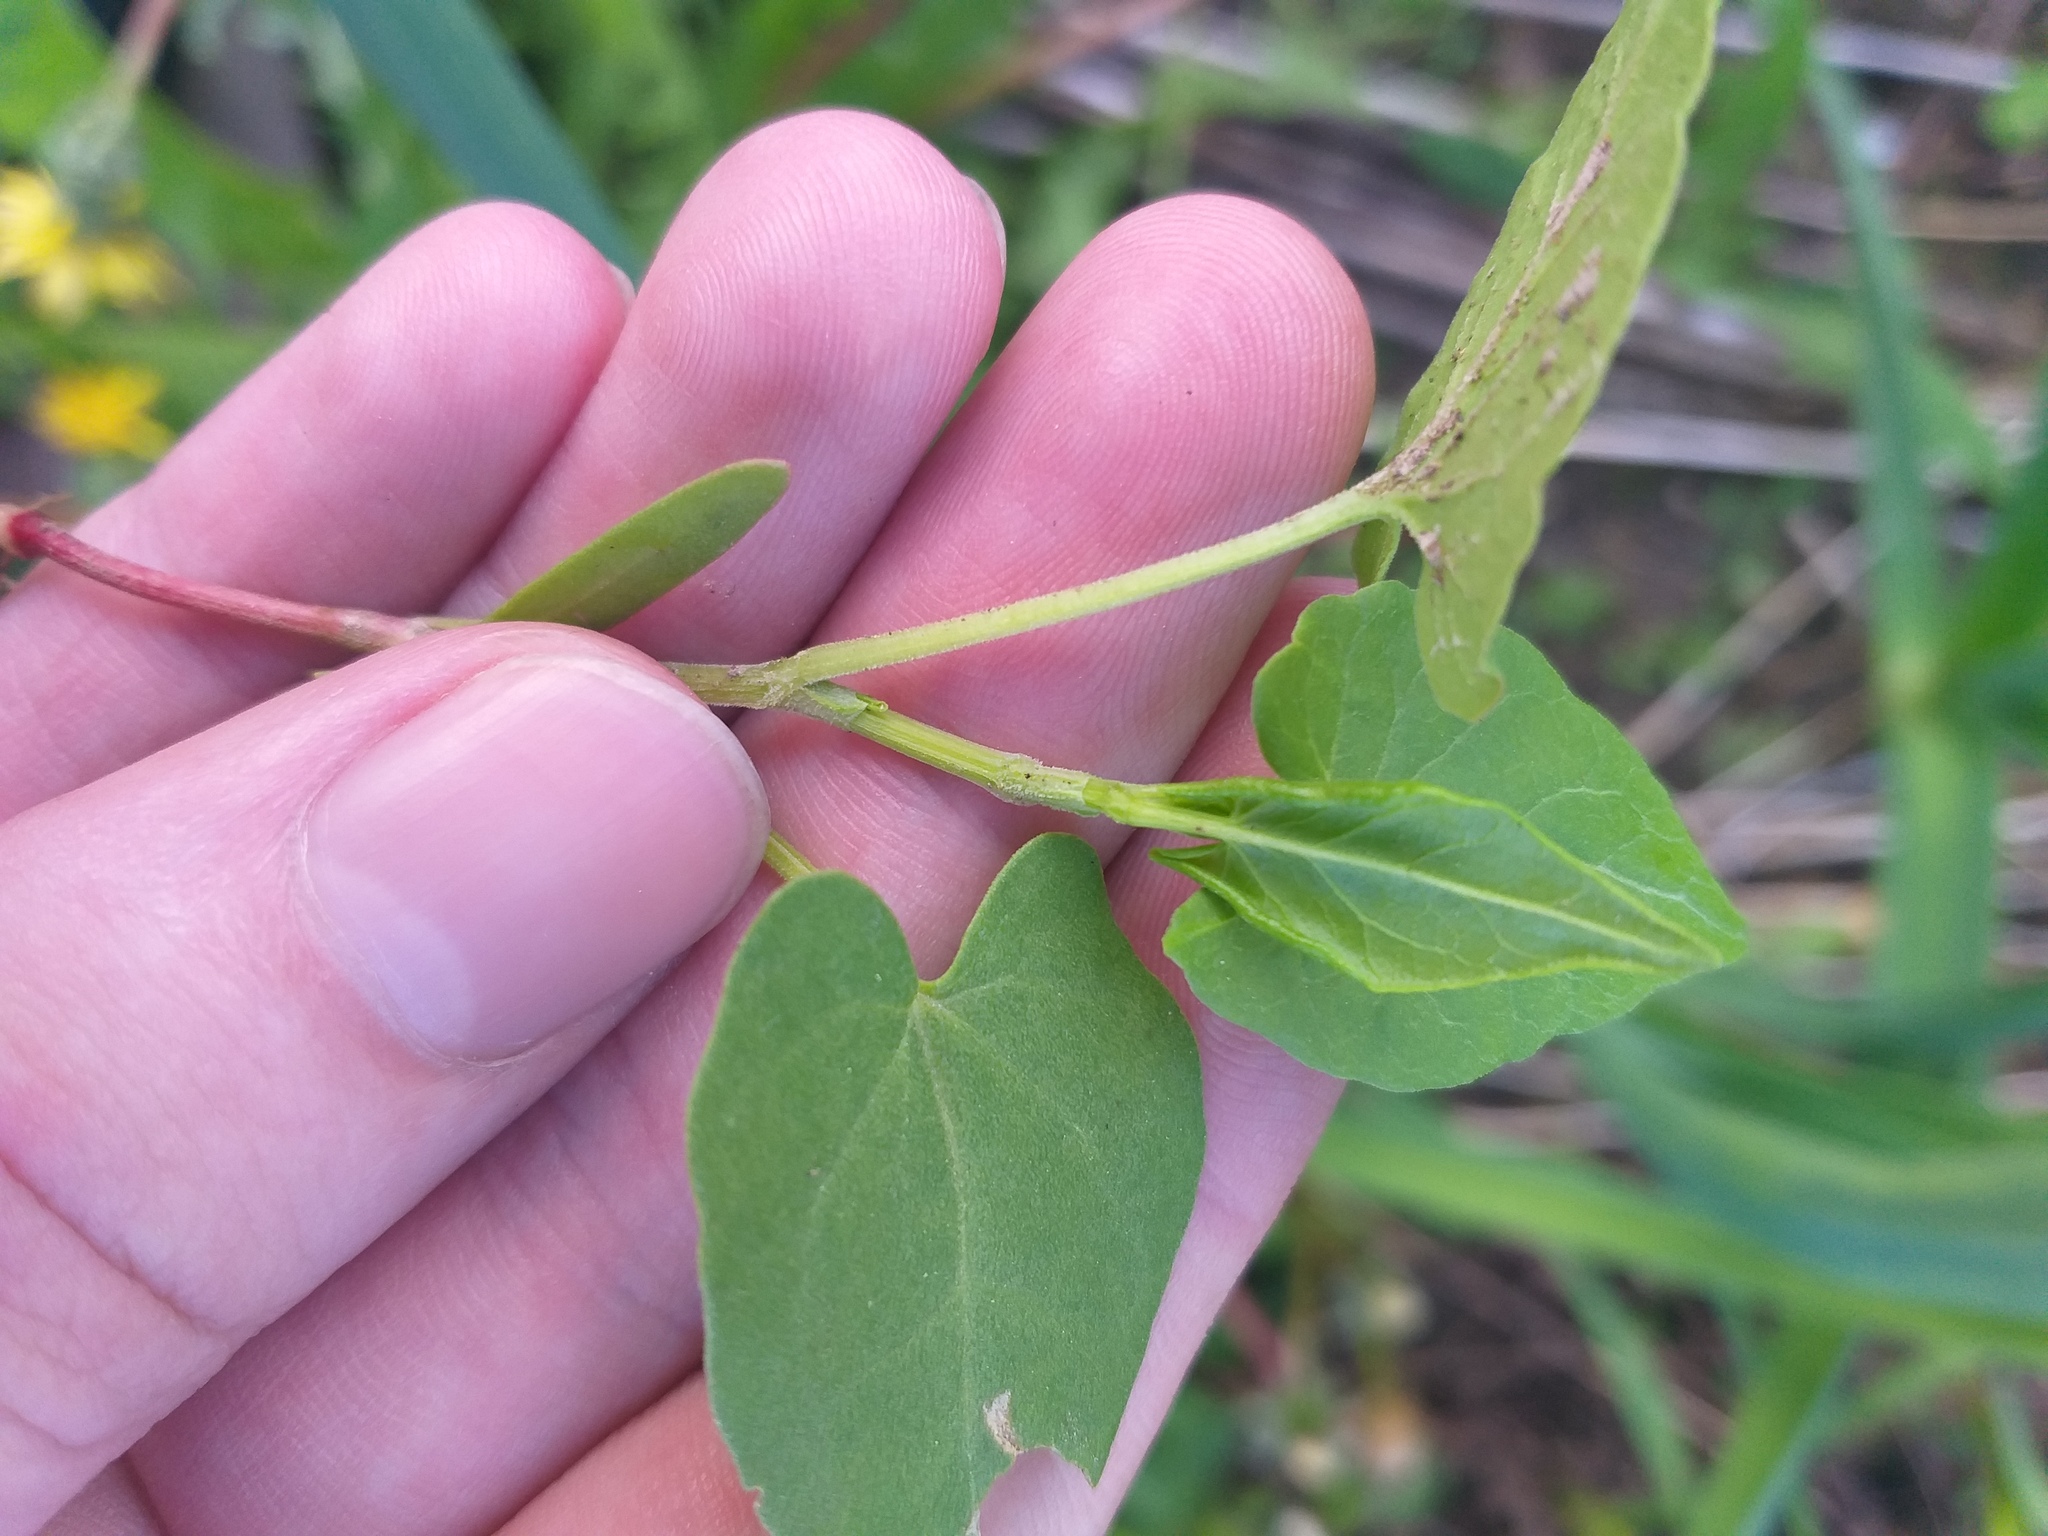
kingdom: Plantae
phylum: Tracheophyta
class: Magnoliopsida
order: Caryophyllales
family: Polygonaceae
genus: Fallopia
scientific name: Fallopia convolvulus
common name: Black bindweed
